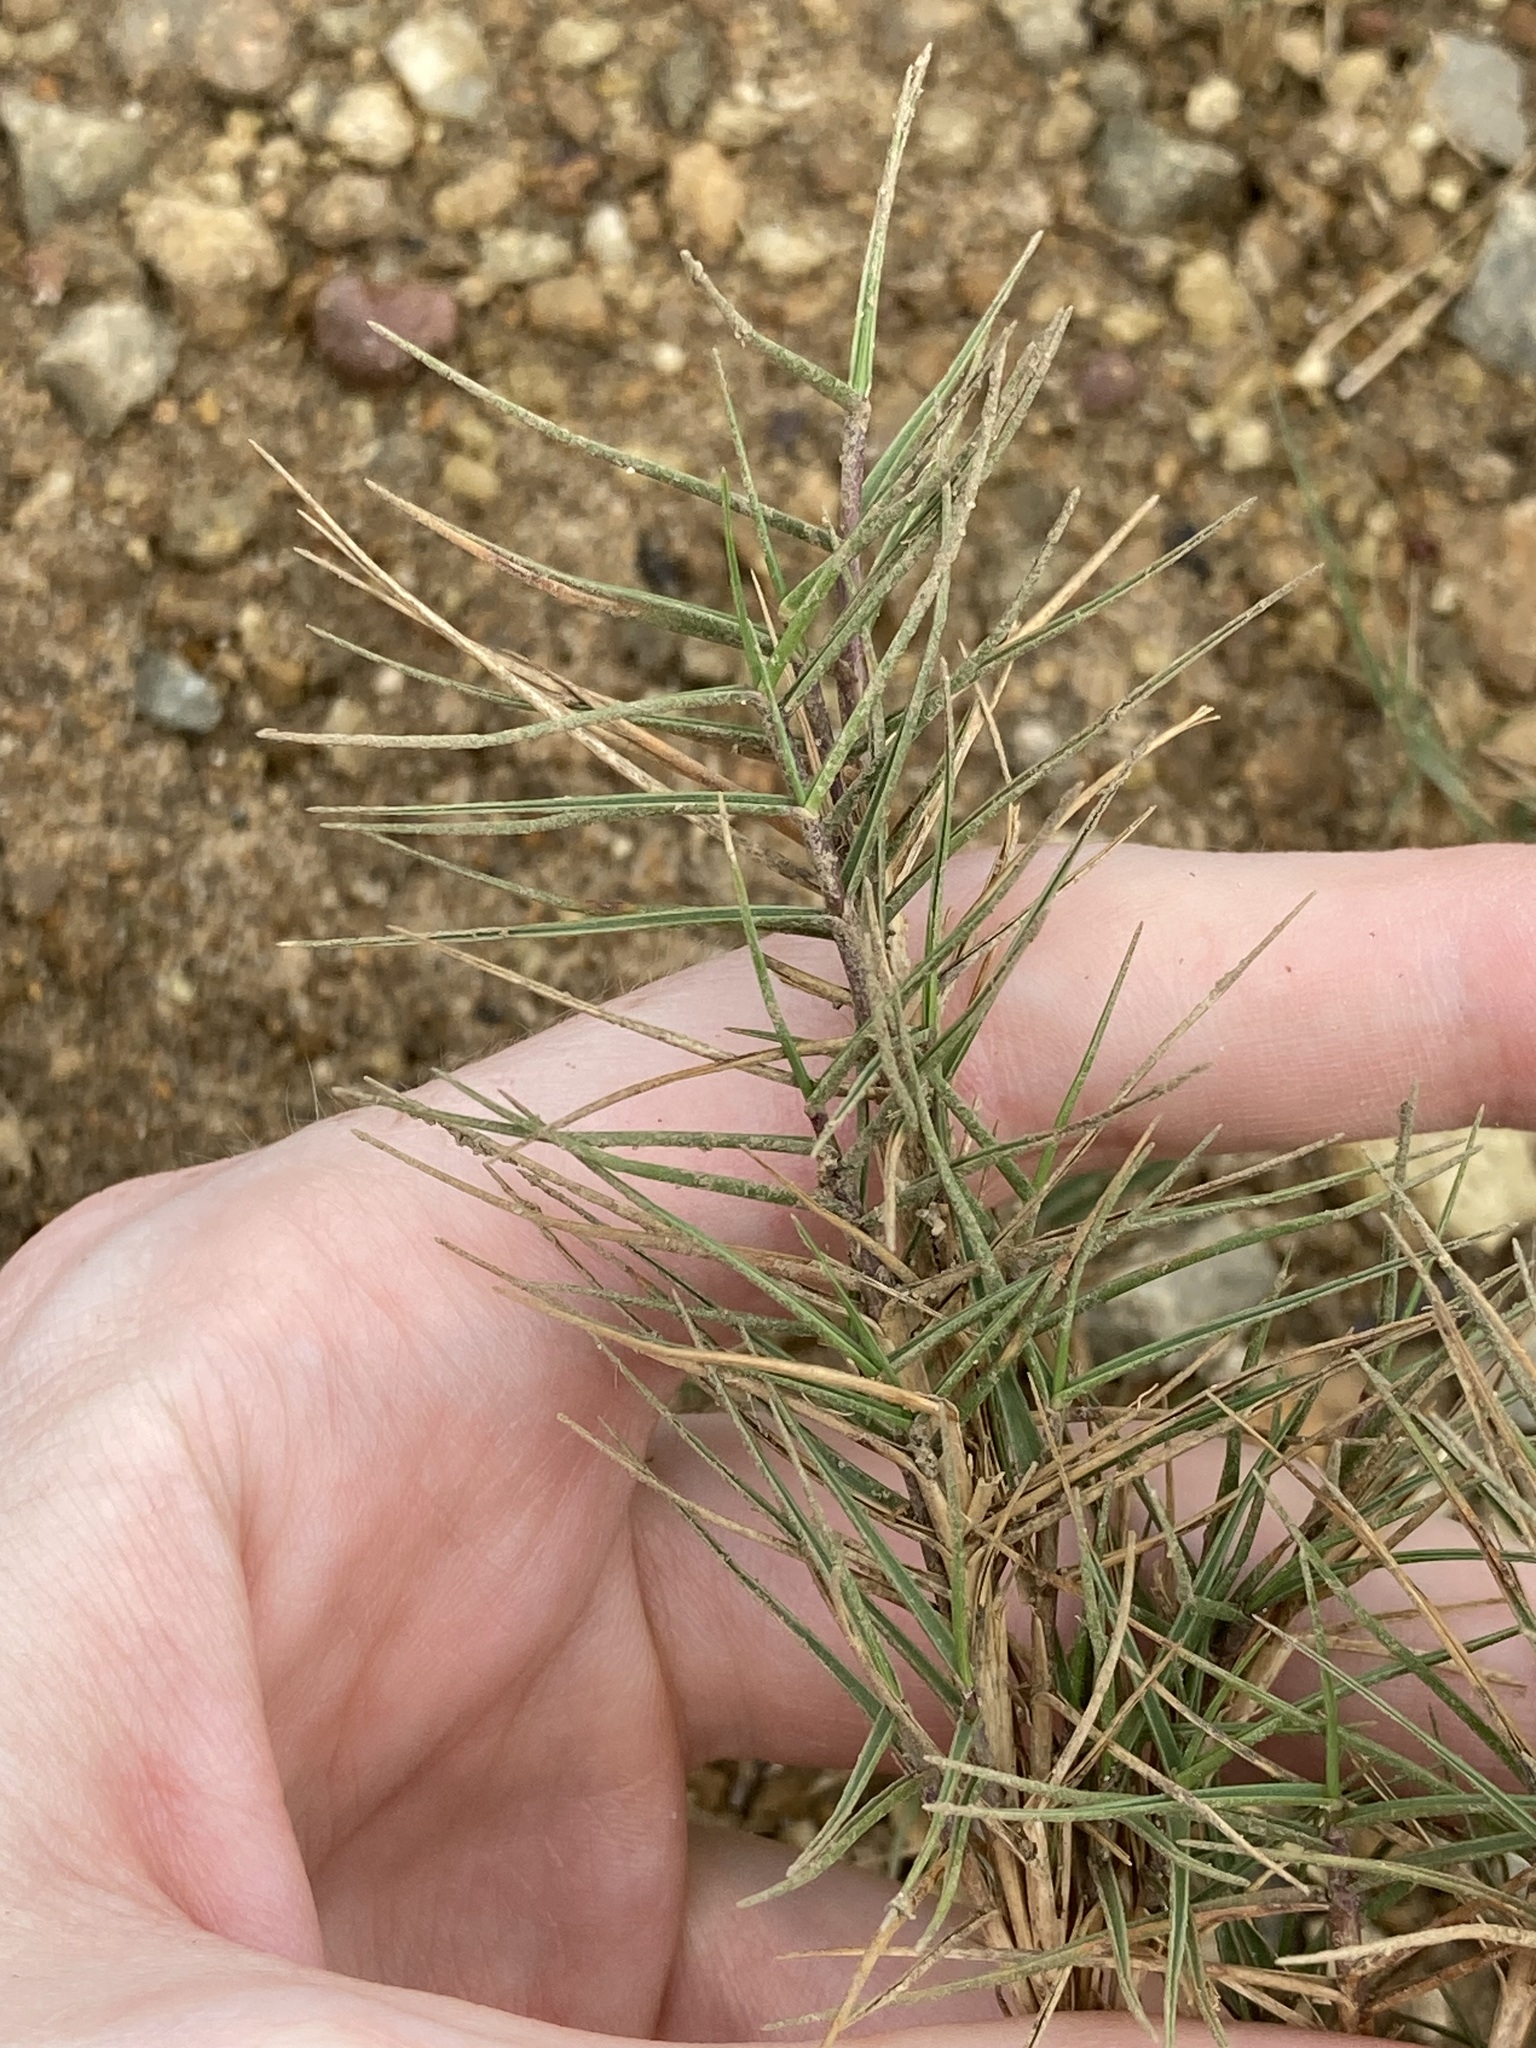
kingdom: Plantae
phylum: Tracheophyta
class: Liliopsida
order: Poales
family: Poaceae
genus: Sporobolus
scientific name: Sporobolus virginicus
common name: Beach dropseed
